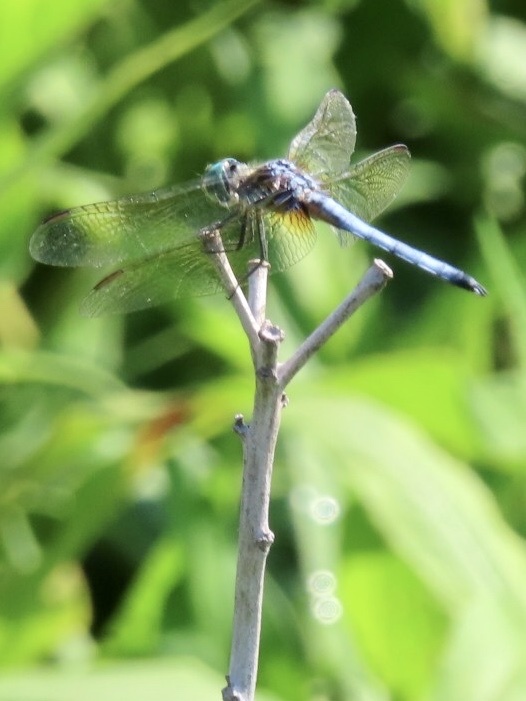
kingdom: Animalia
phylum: Arthropoda
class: Insecta
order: Odonata
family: Libellulidae
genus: Pachydiplax
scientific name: Pachydiplax longipennis
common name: Blue dasher
